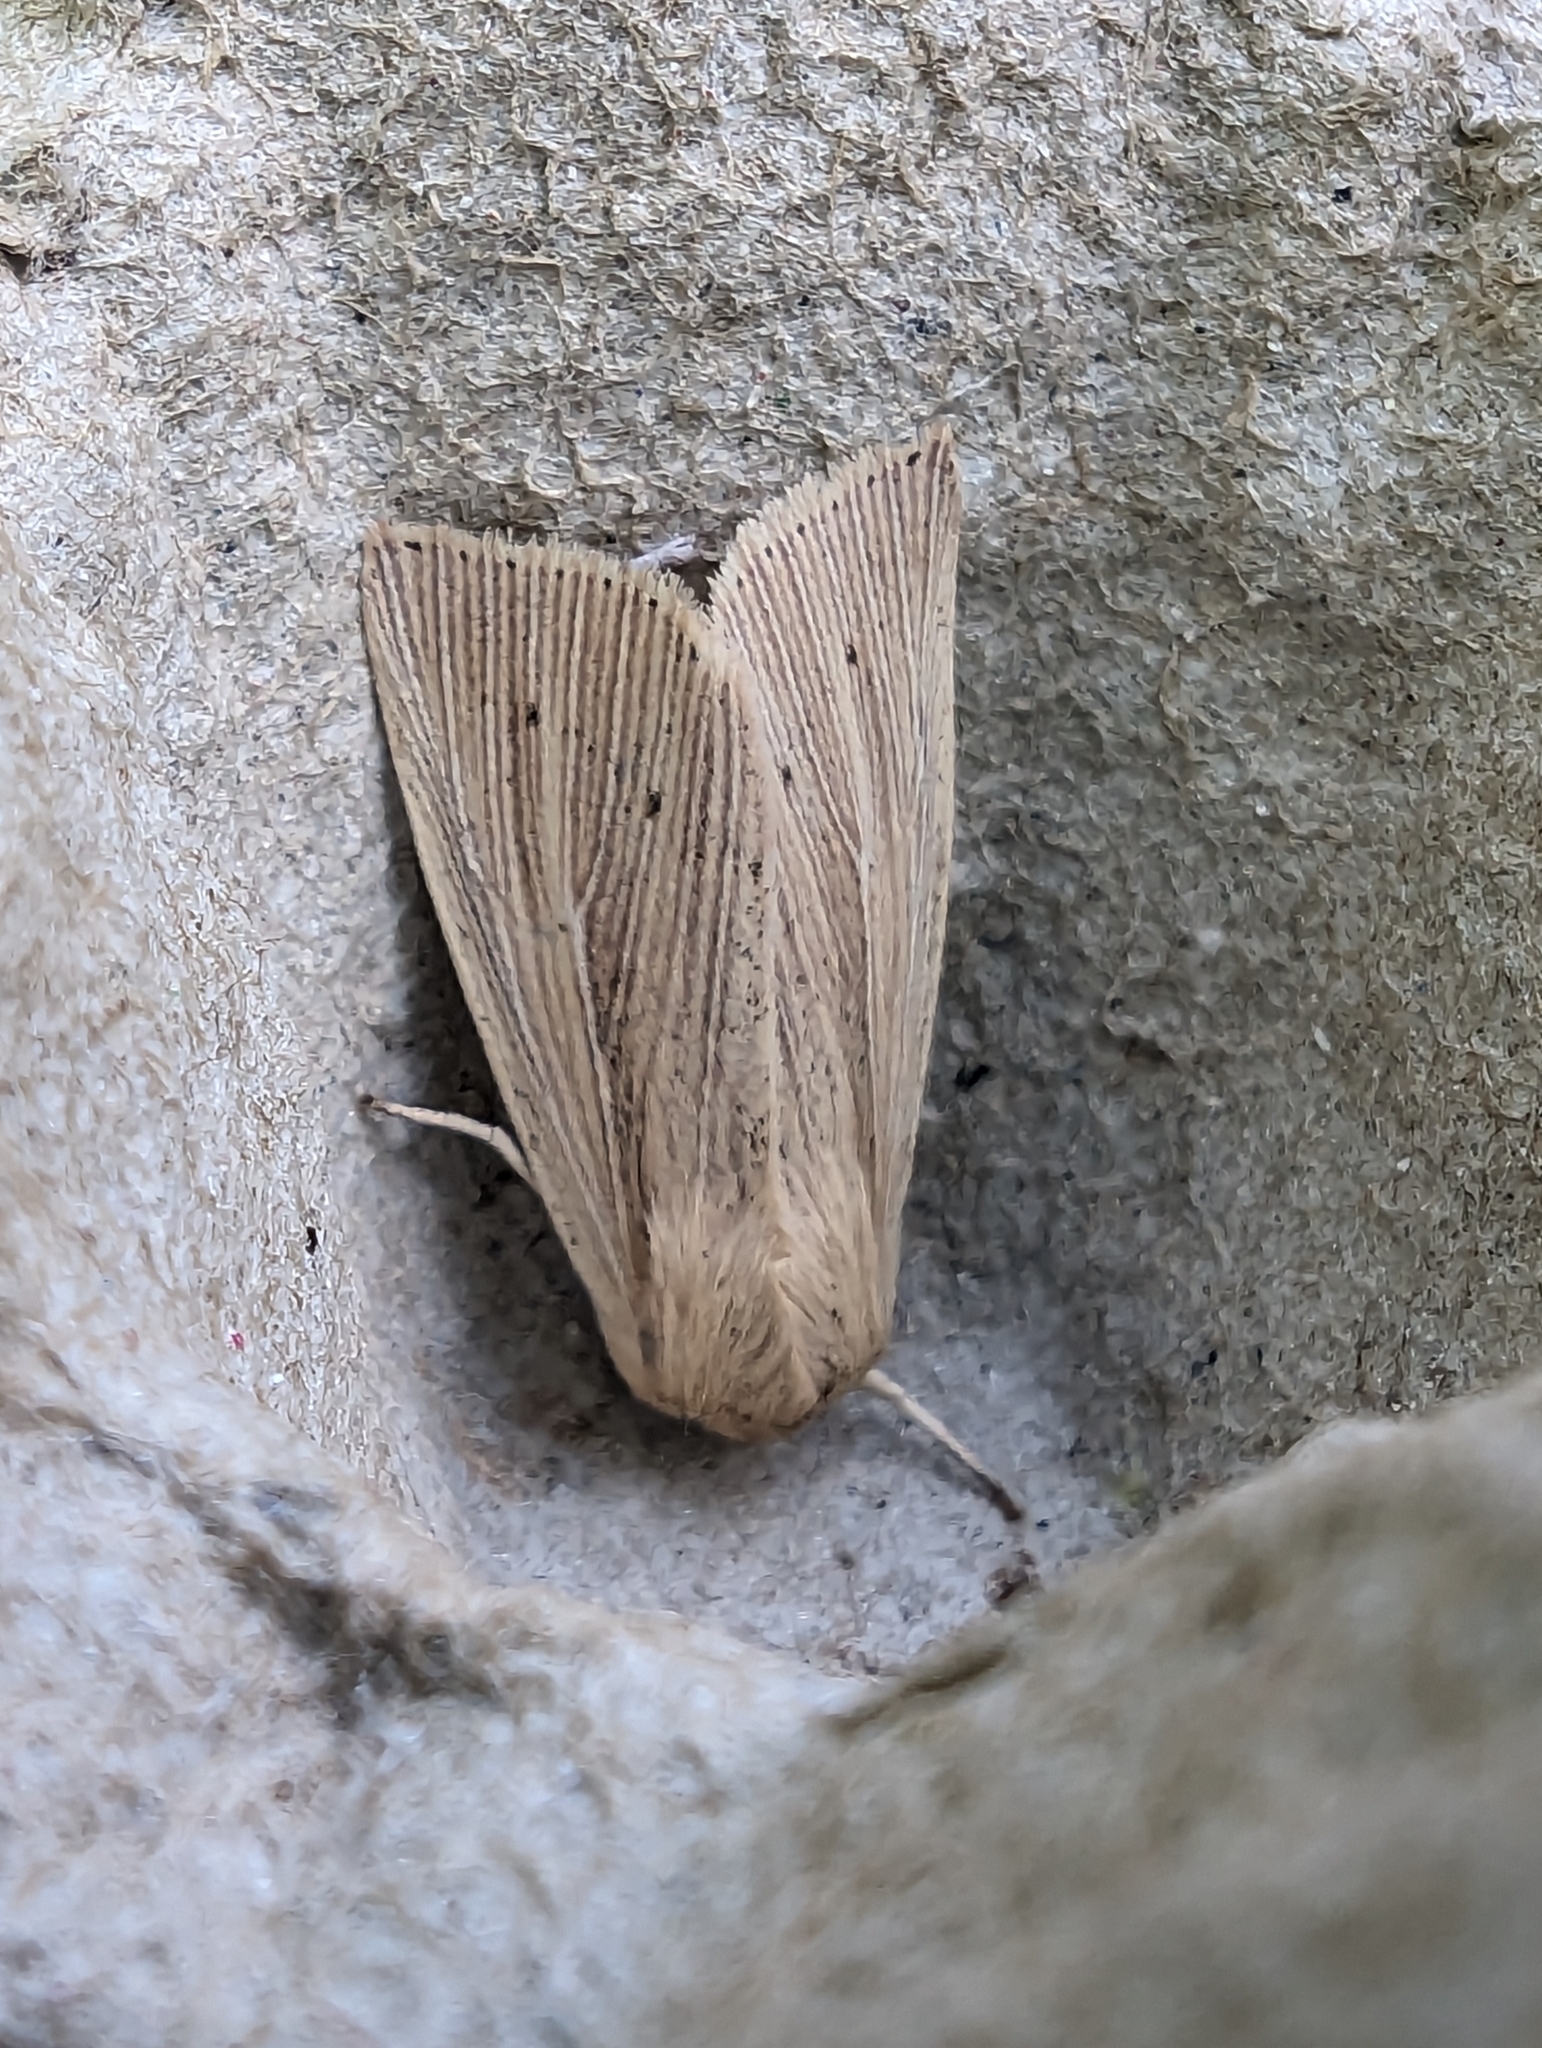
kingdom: Animalia
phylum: Arthropoda
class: Insecta
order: Lepidoptera
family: Noctuidae
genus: Mythimna
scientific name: Mythimna straminea
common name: Southern wainscot
